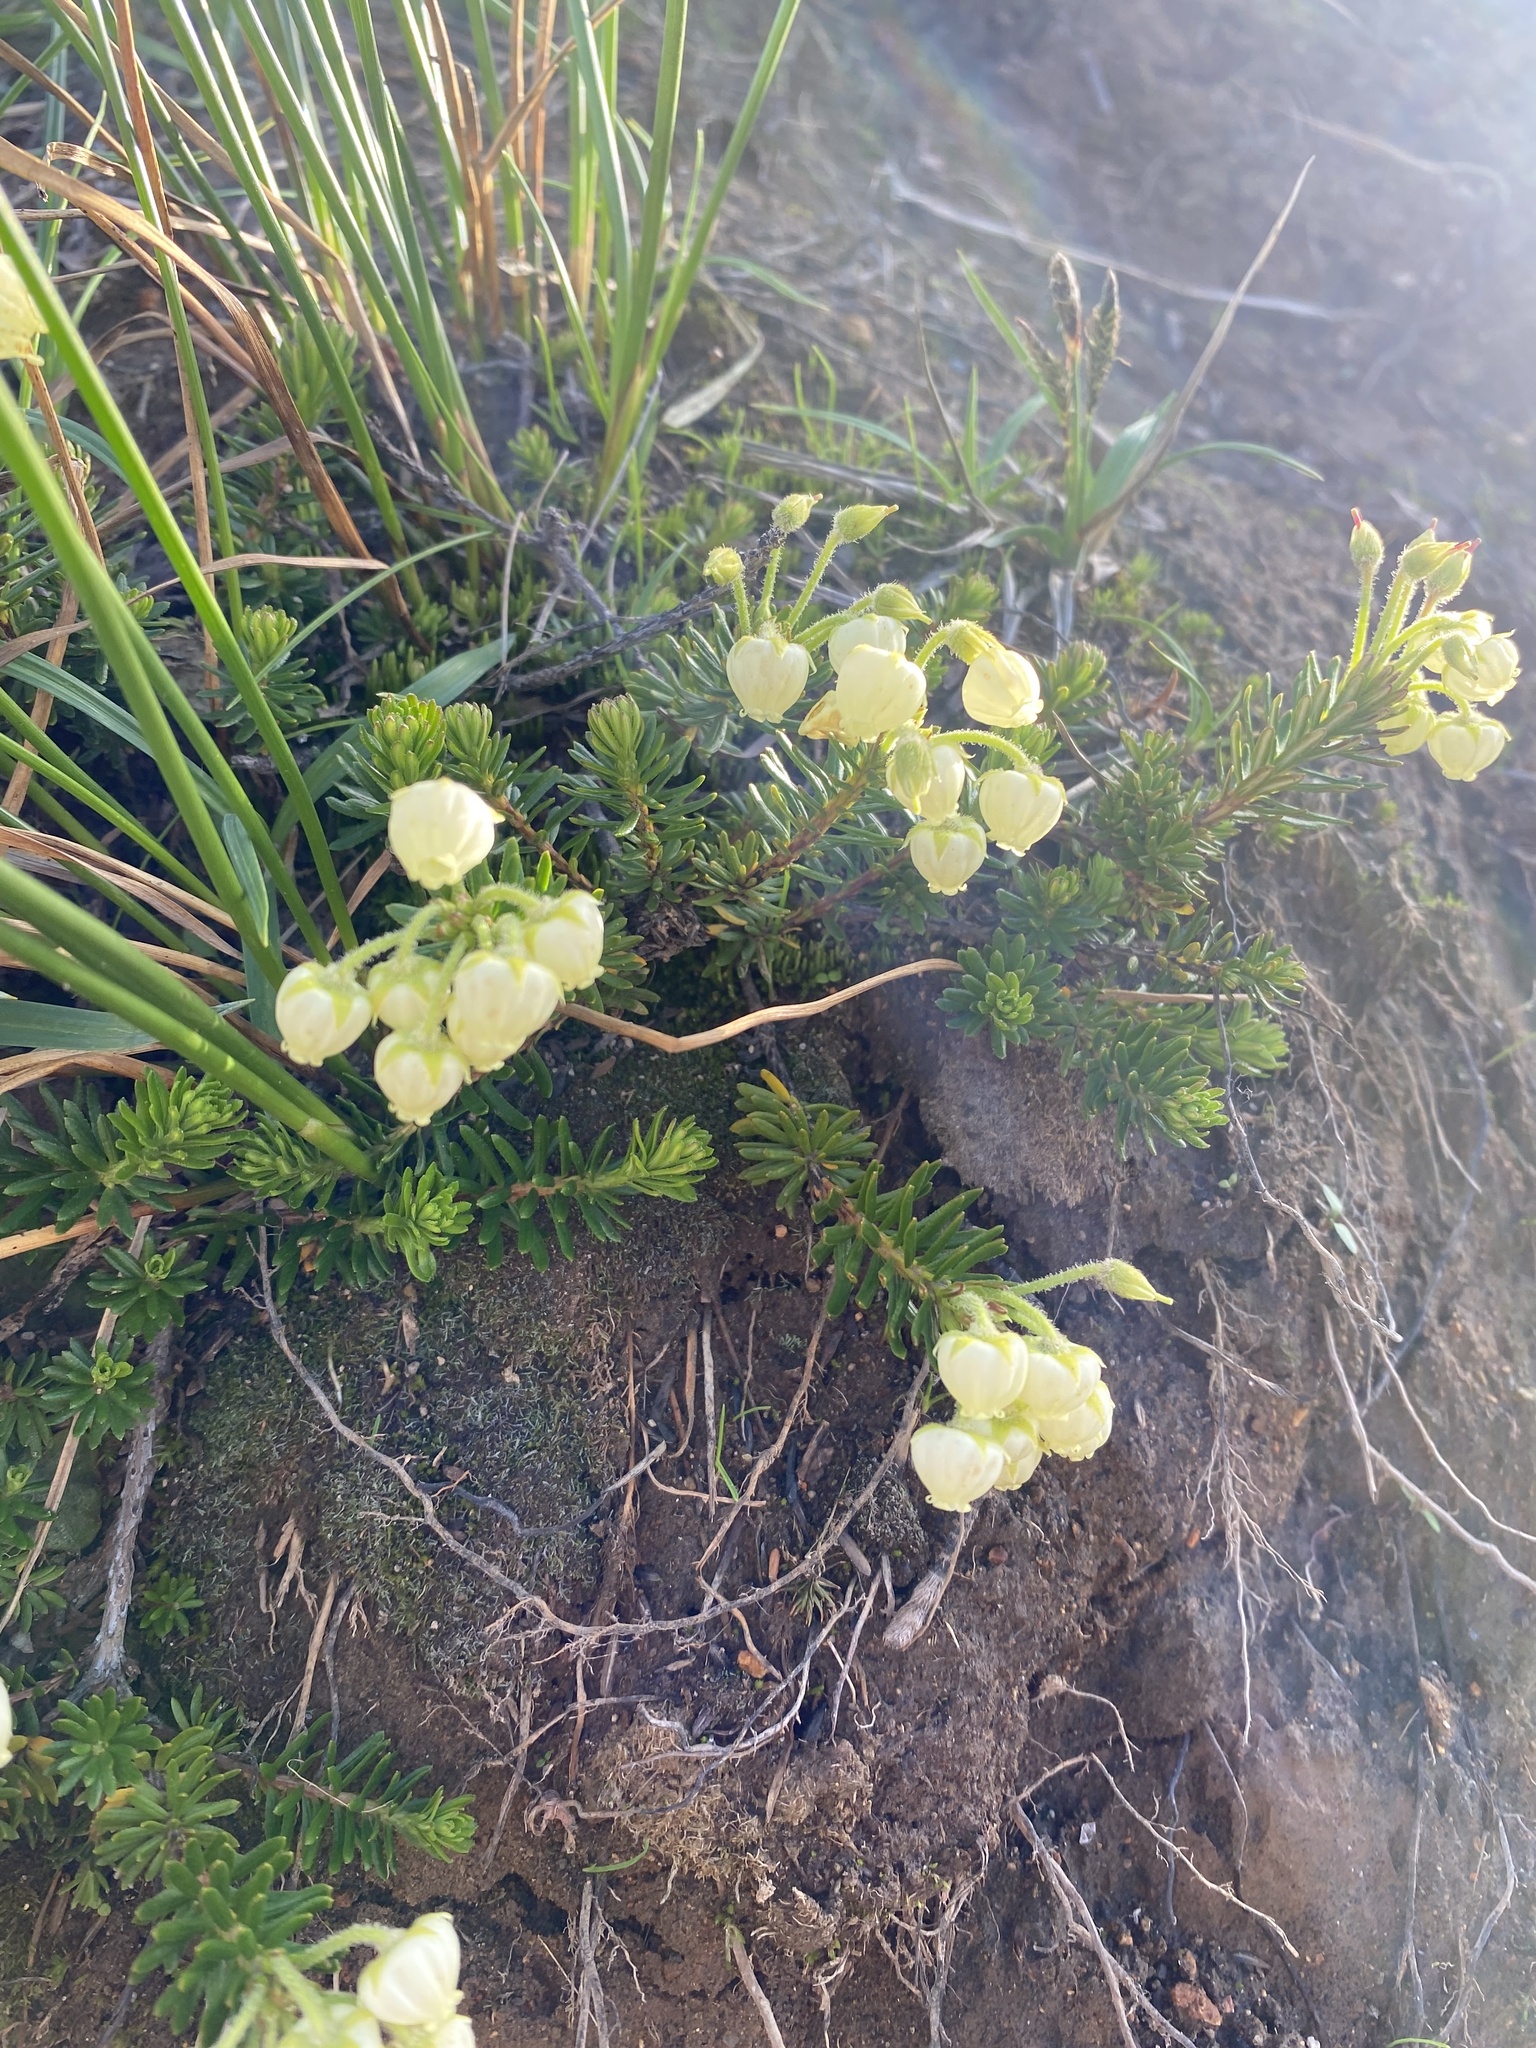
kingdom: Plantae
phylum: Tracheophyta
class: Magnoliopsida
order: Ericales
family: Ericaceae
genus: Phyllodoce
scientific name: Phyllodoce aleutica
